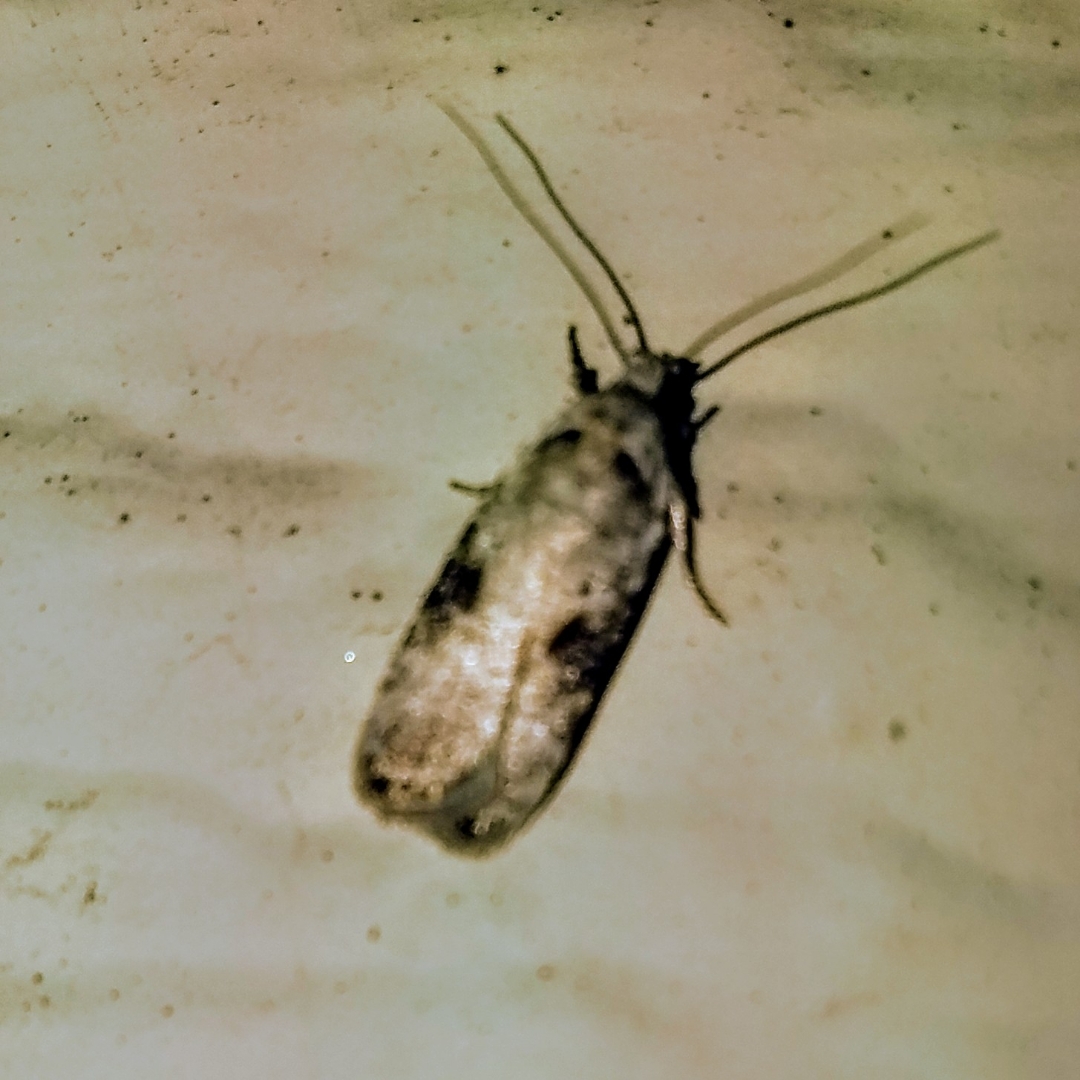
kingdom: Animalia
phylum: Arthropoda
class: Insecta
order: Lepidoptera
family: Depressariidae
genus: Agonopterix
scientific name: Agonopterix alstroemeriana
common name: Moth
